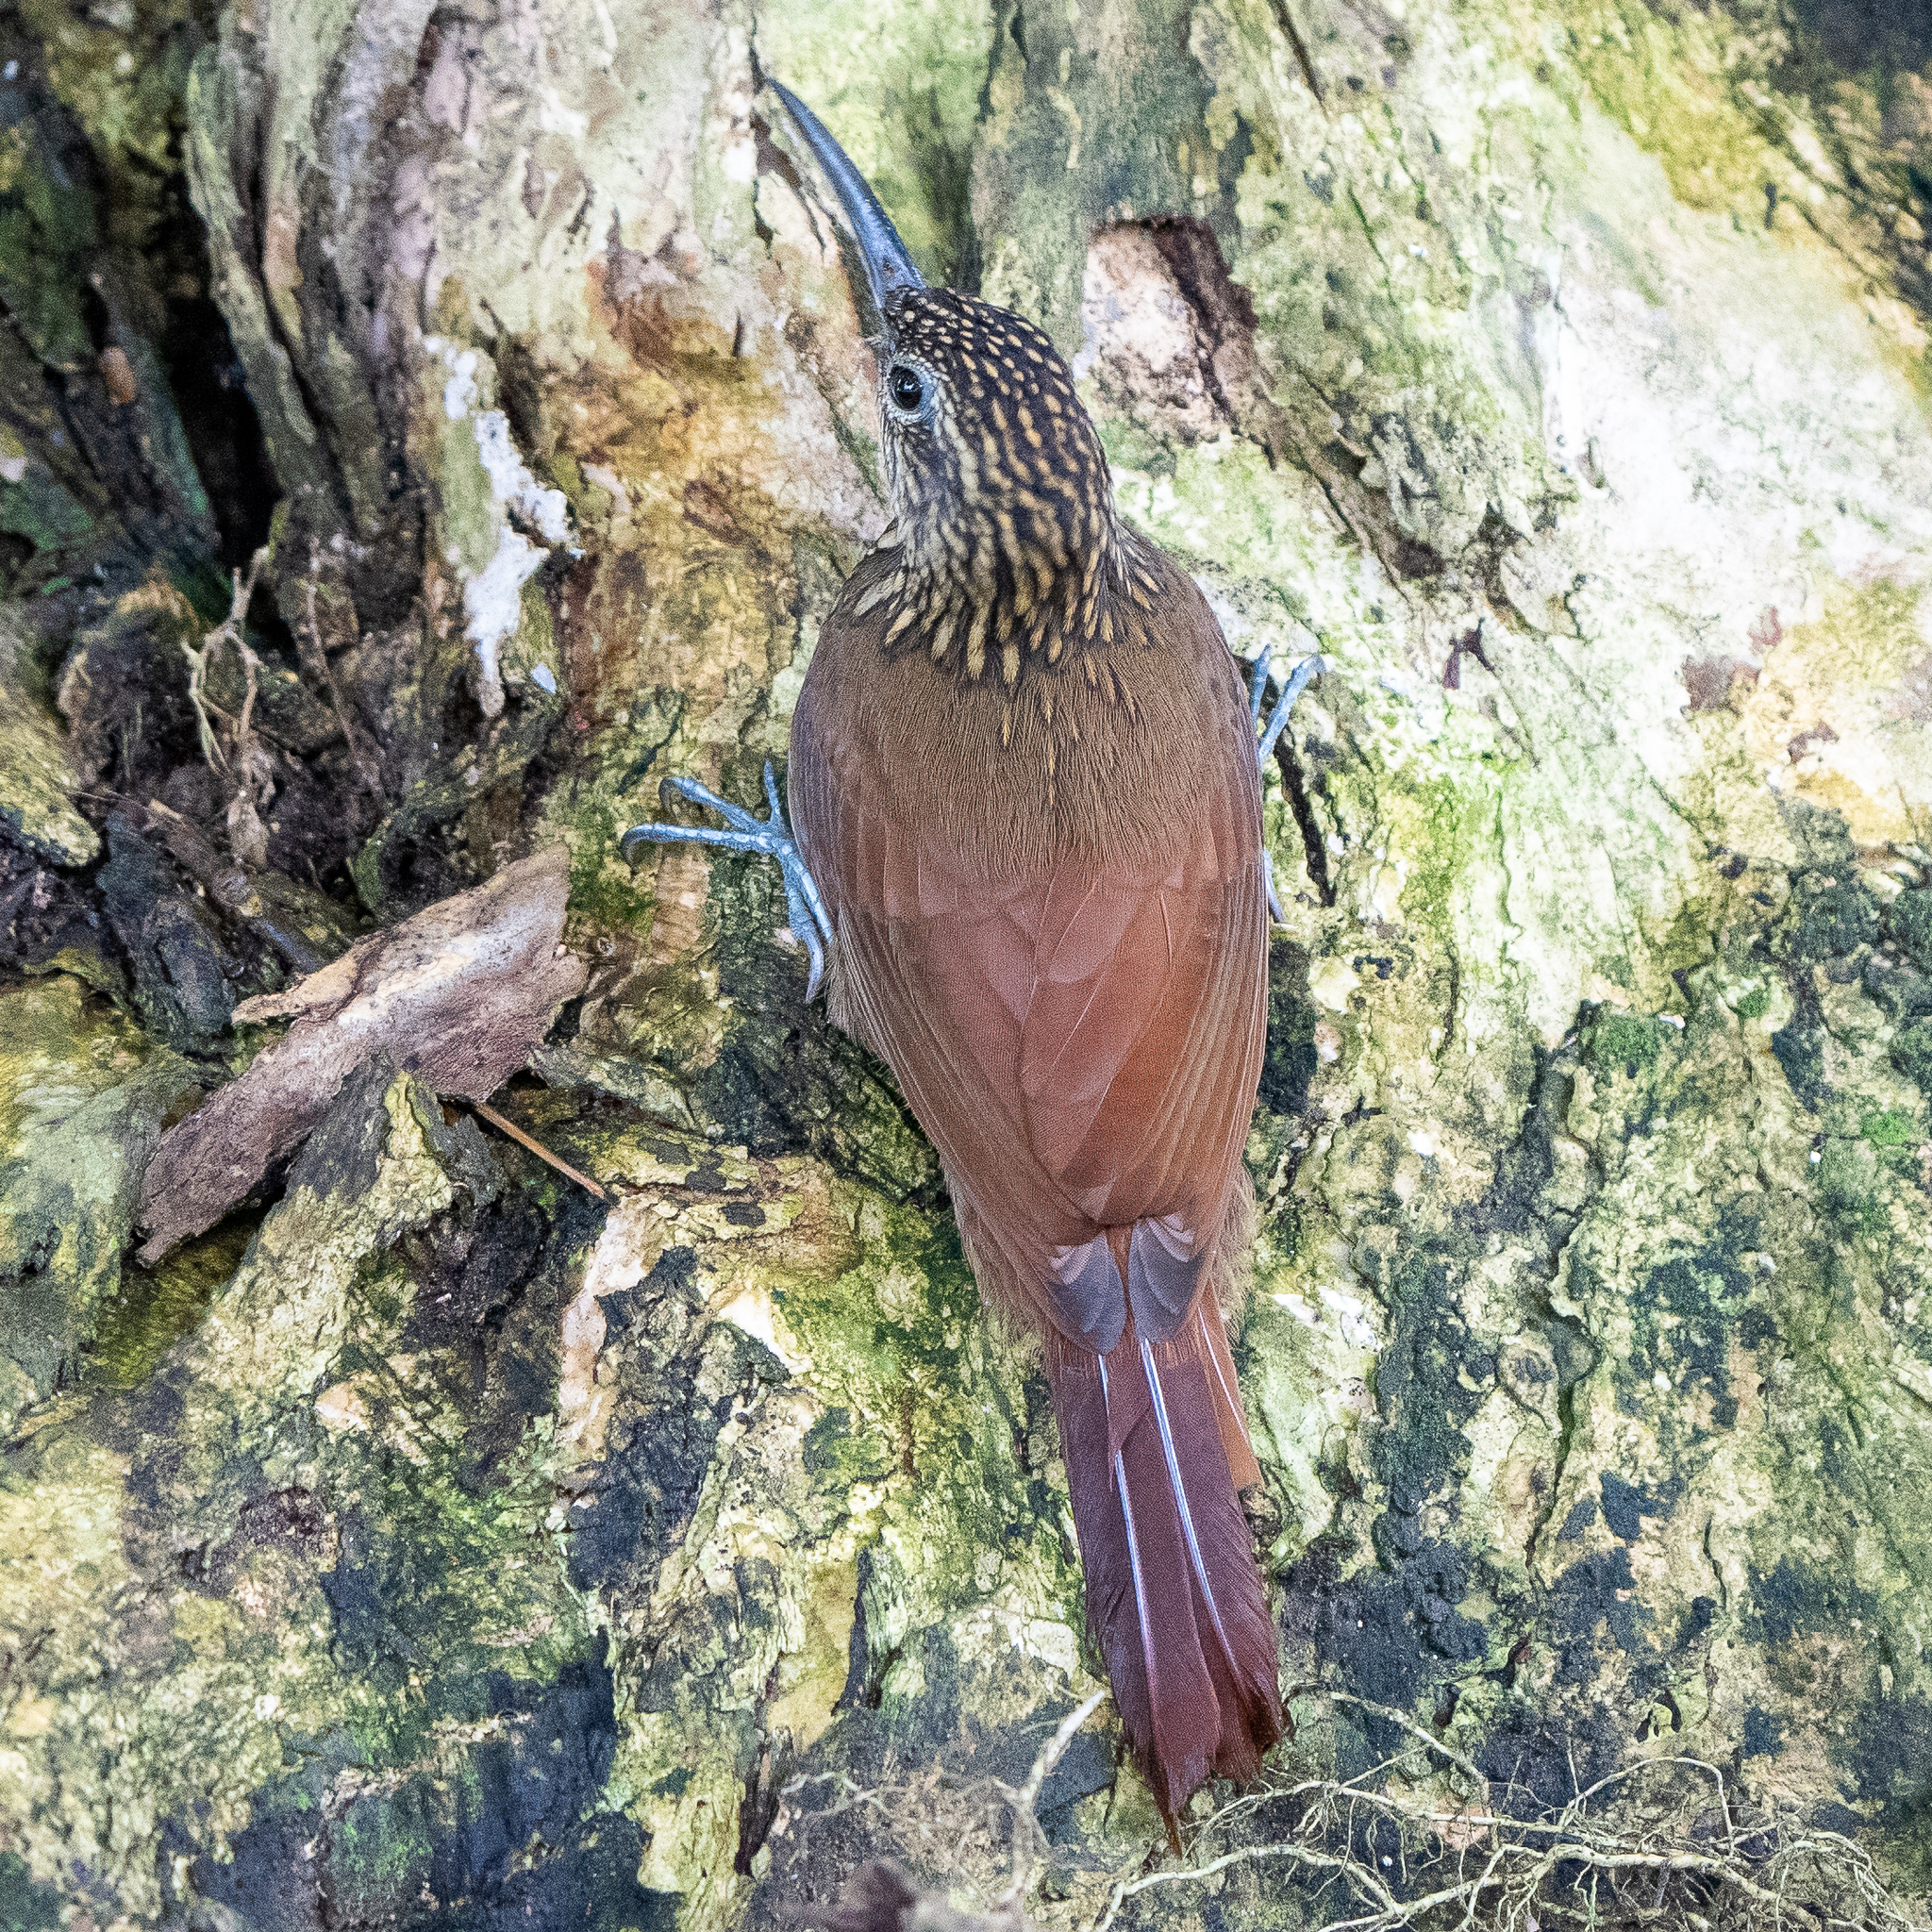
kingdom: Animalia
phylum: Chordata
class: Aves
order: Passeriformes
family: Furnariidae
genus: Xiphorhynchus
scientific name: Xiphorhynchus susurrans
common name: Cocoa woodcreeper
